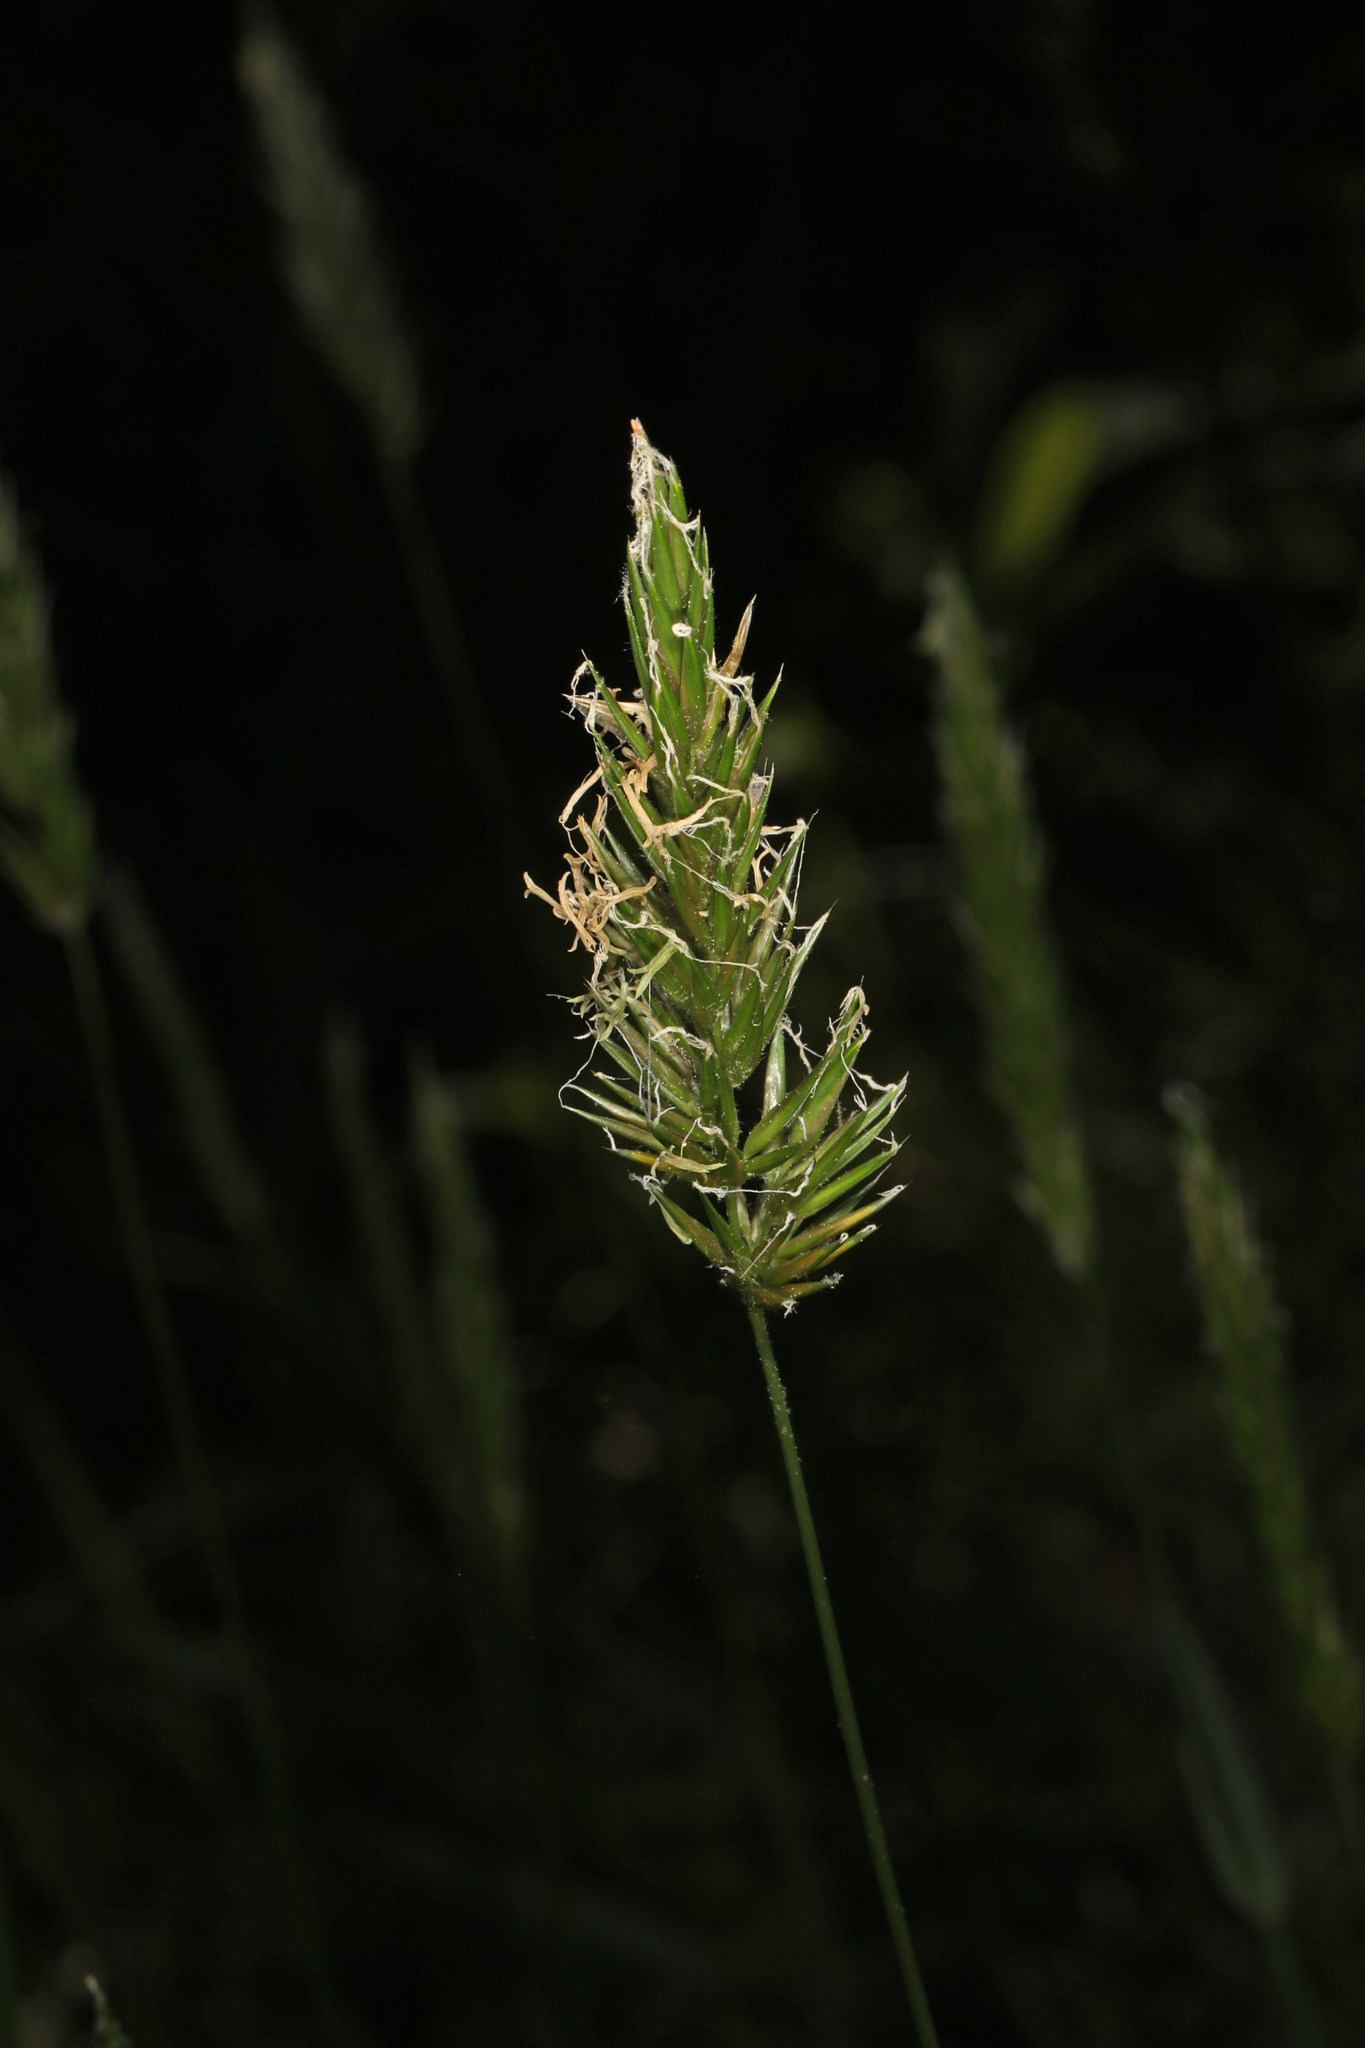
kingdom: Plantae
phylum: Tracheophyta
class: Liliopsida
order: Poales
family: Poaceae
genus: Anthoxanthum
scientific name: Anthoxanthum odoratum
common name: Sweet vernalgrass
